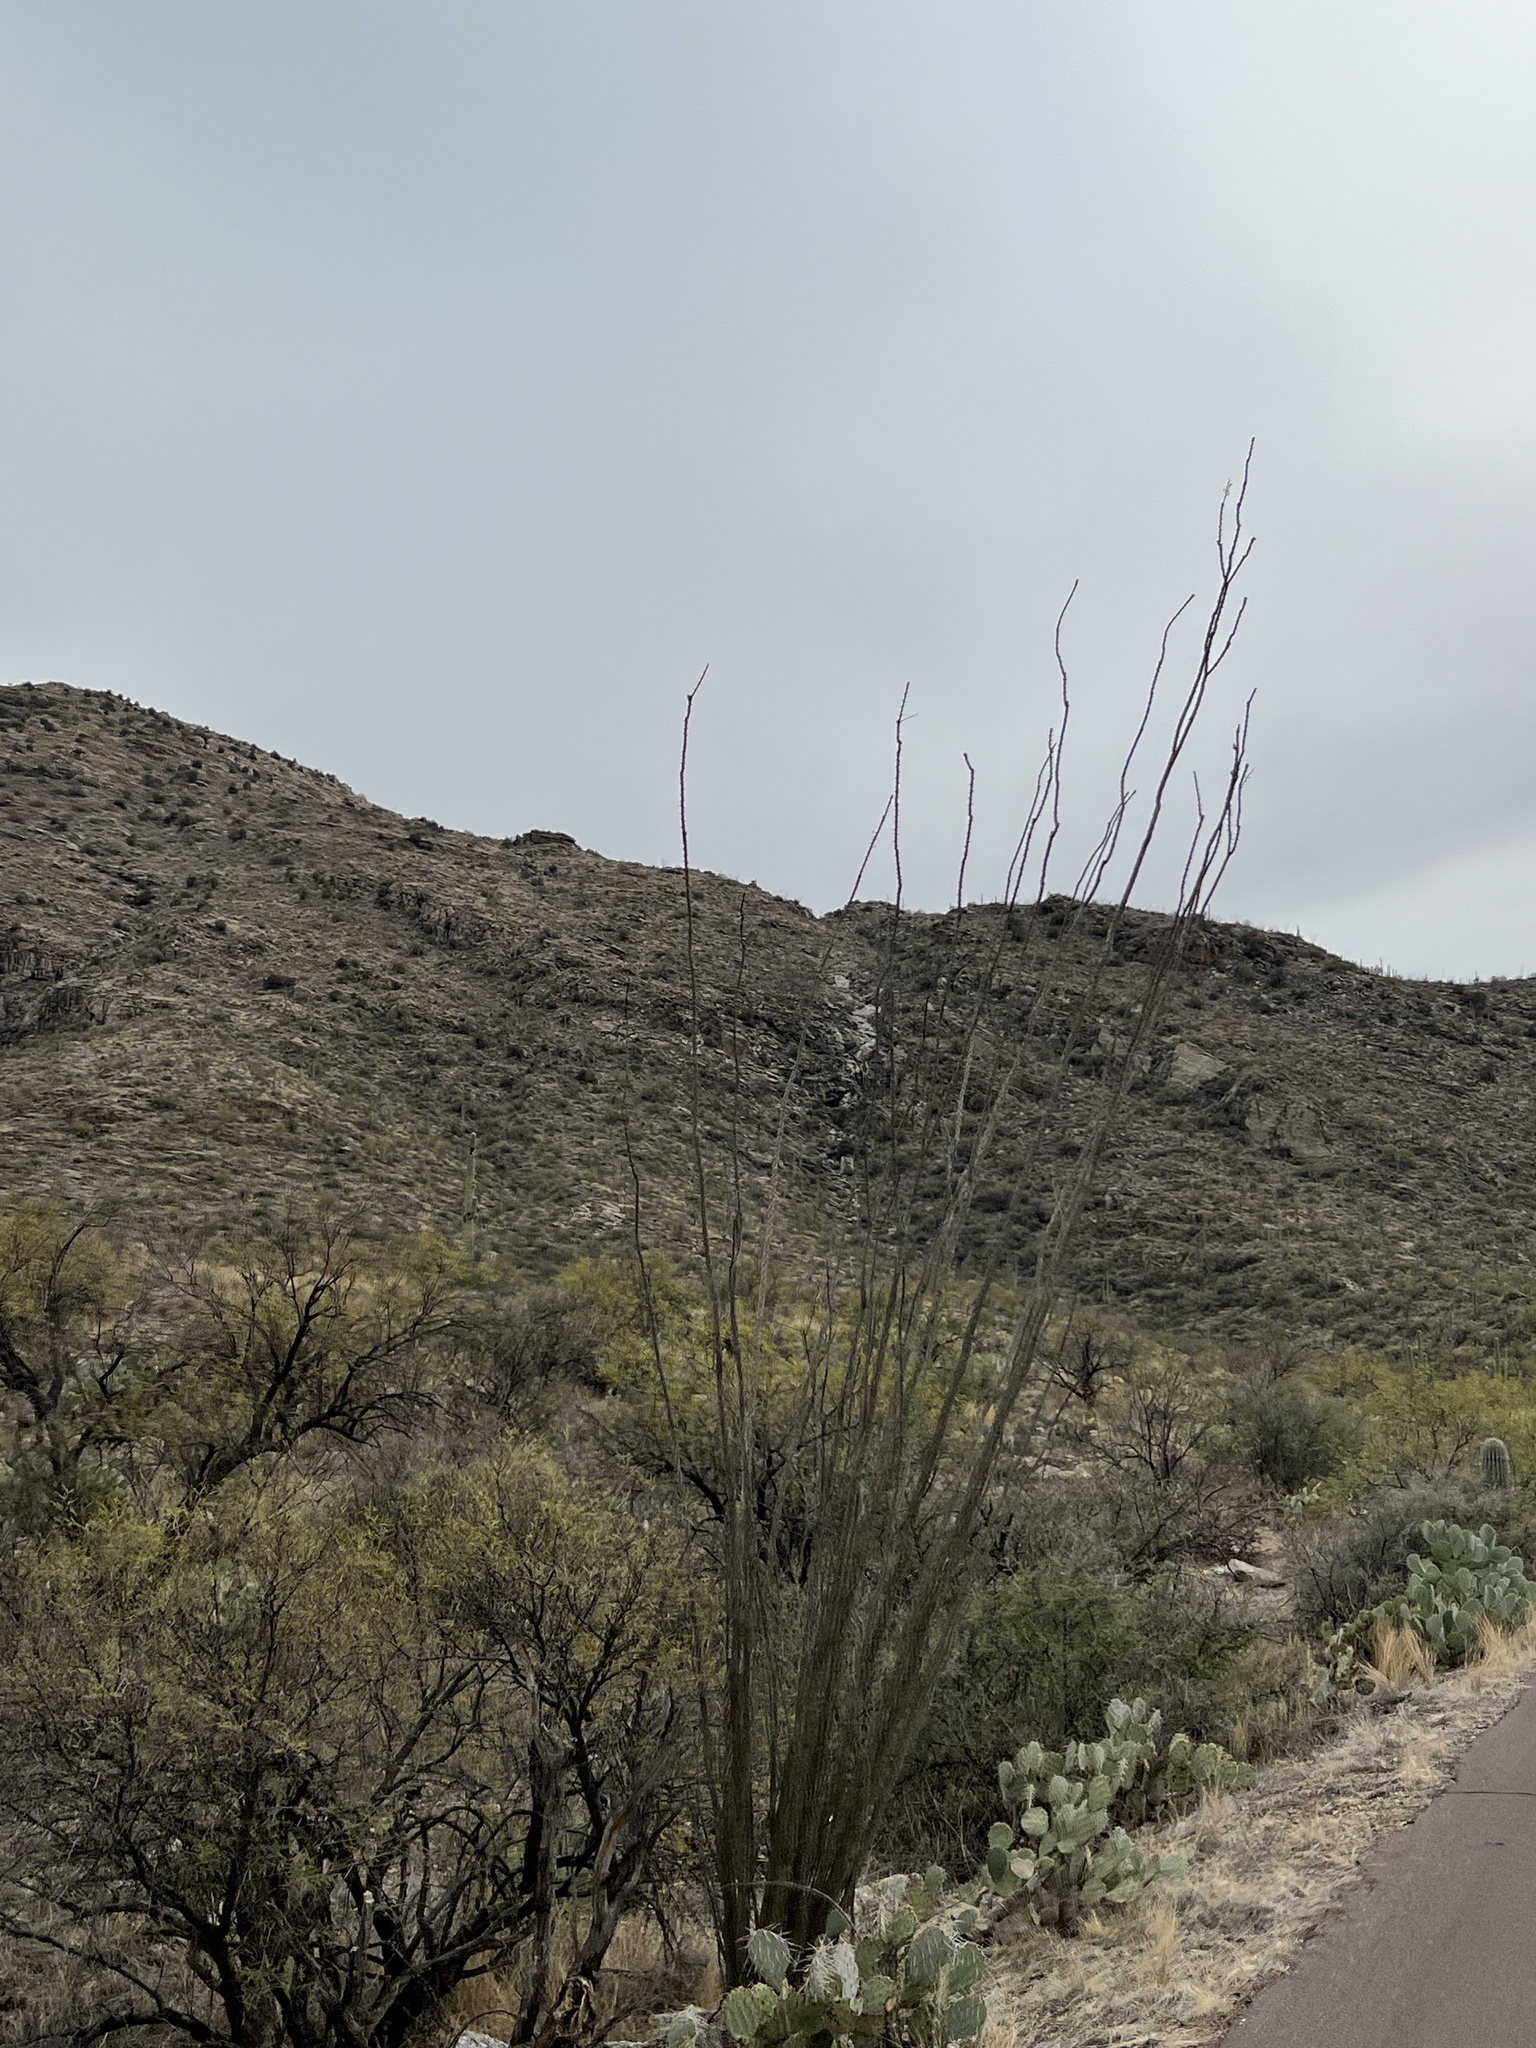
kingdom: Plantae
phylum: Tracheophyta
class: Magnoliopsida
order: Ericales
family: Fouquieriaceae
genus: Fouquieria
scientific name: Fouquieria splendens
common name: Vine-cactus
